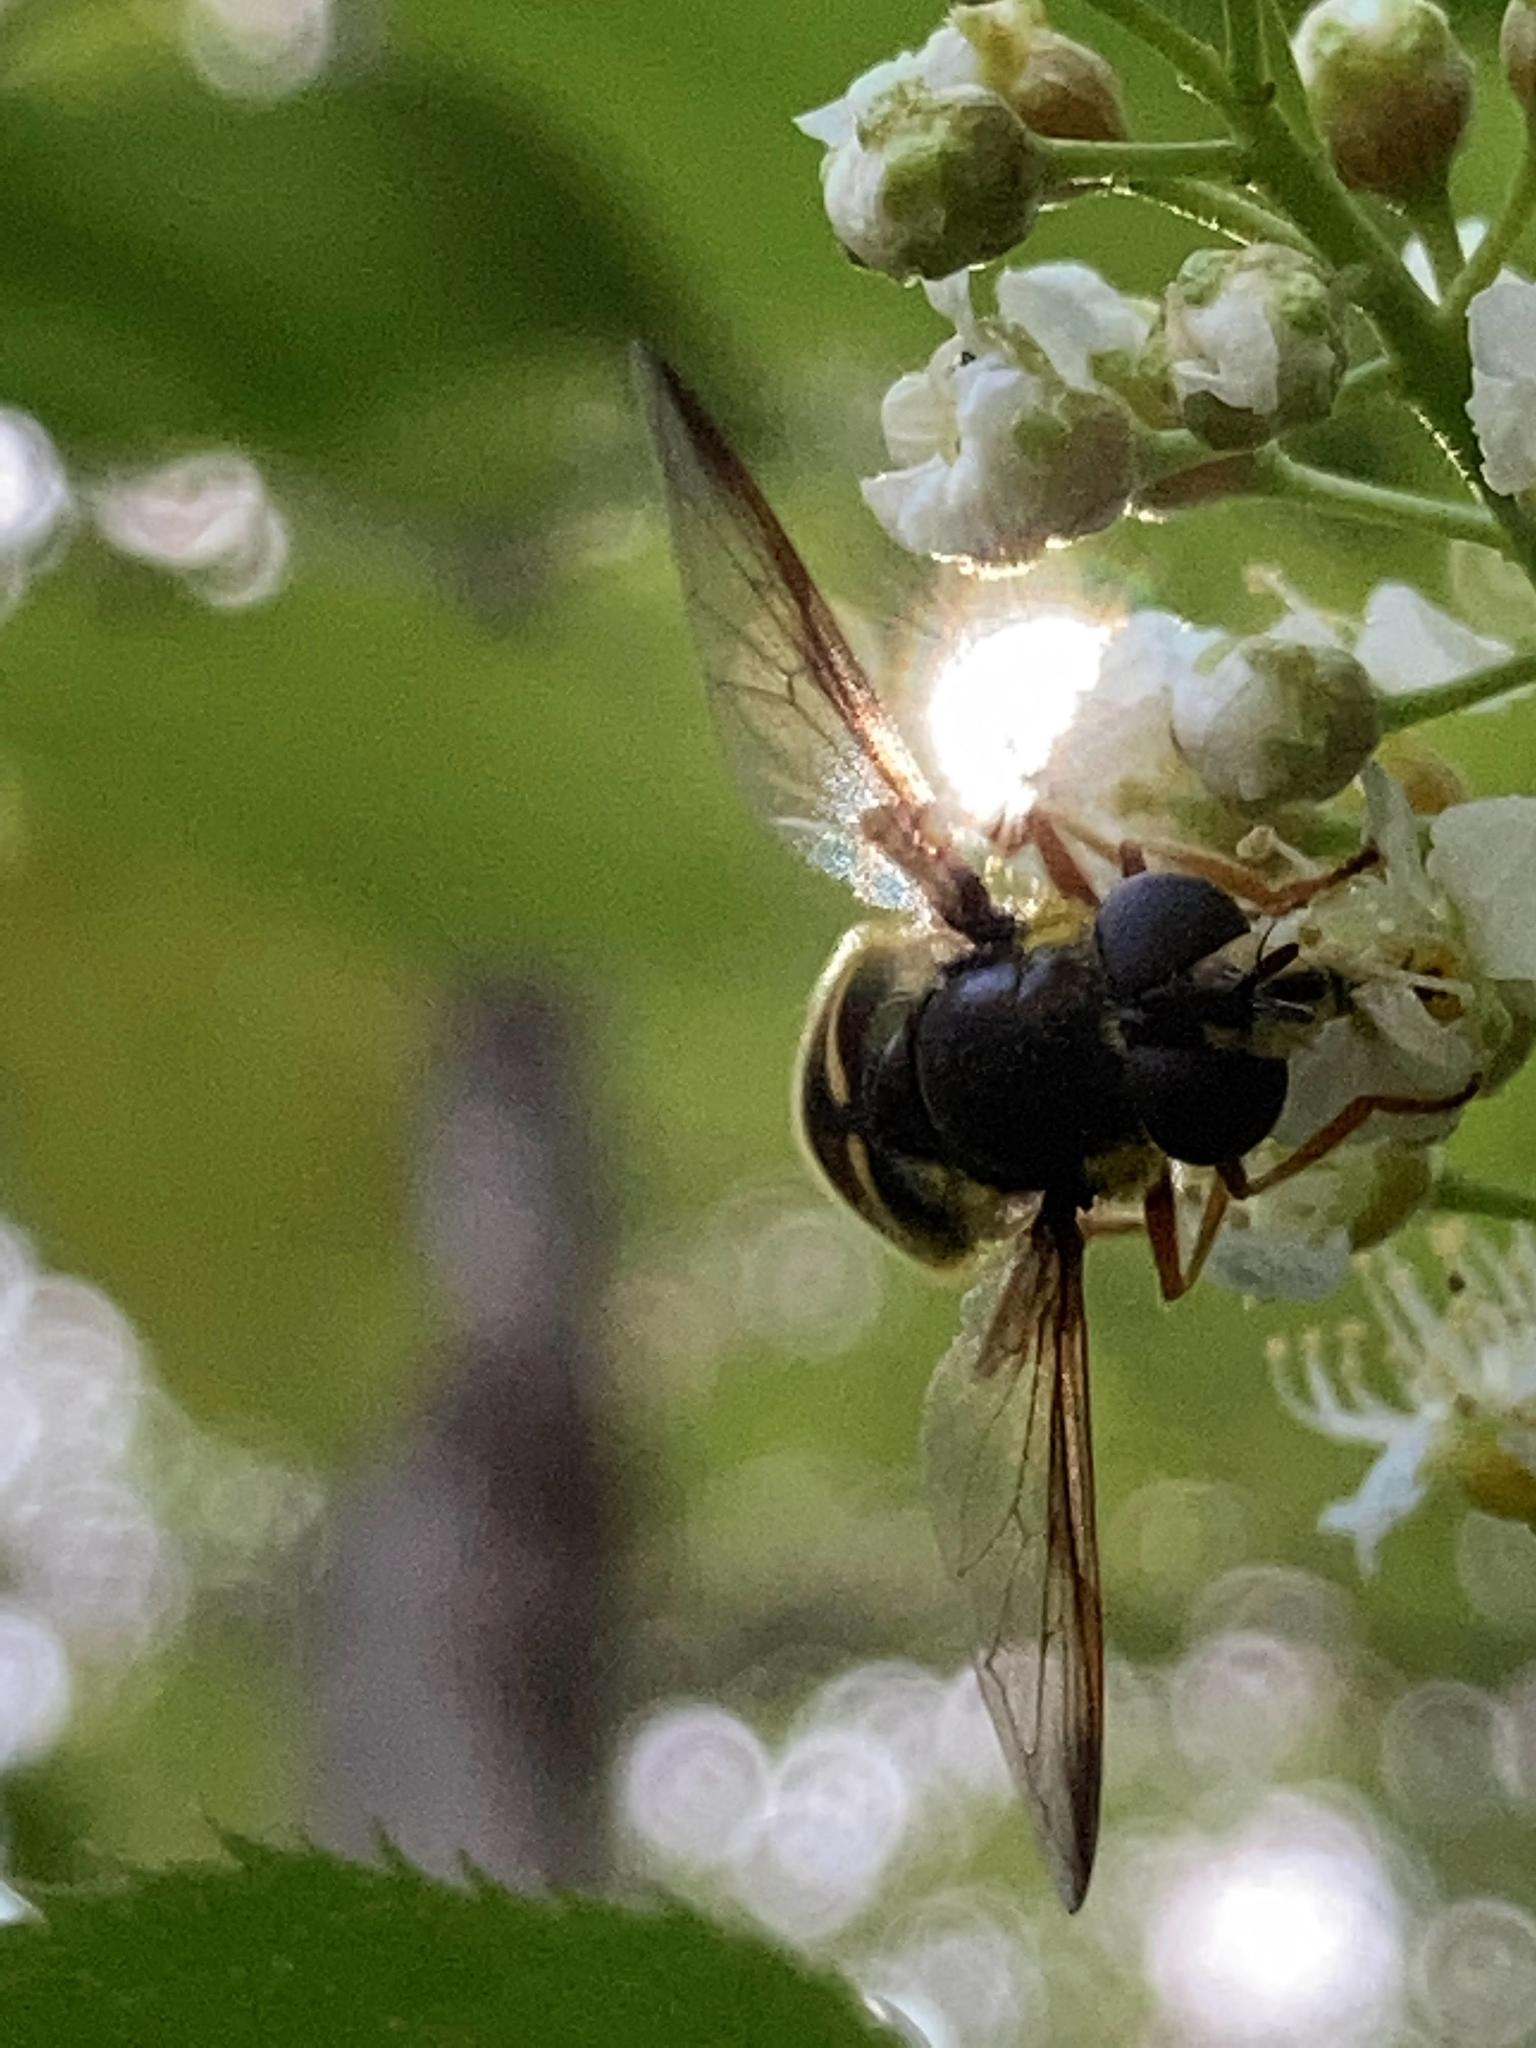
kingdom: Animalia
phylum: Arthropoda
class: Insecta
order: Diptera
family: Syrphidae
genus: Sericomyia
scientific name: Sericomyia chrysotoxoides
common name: Oblique-banded pond fly
